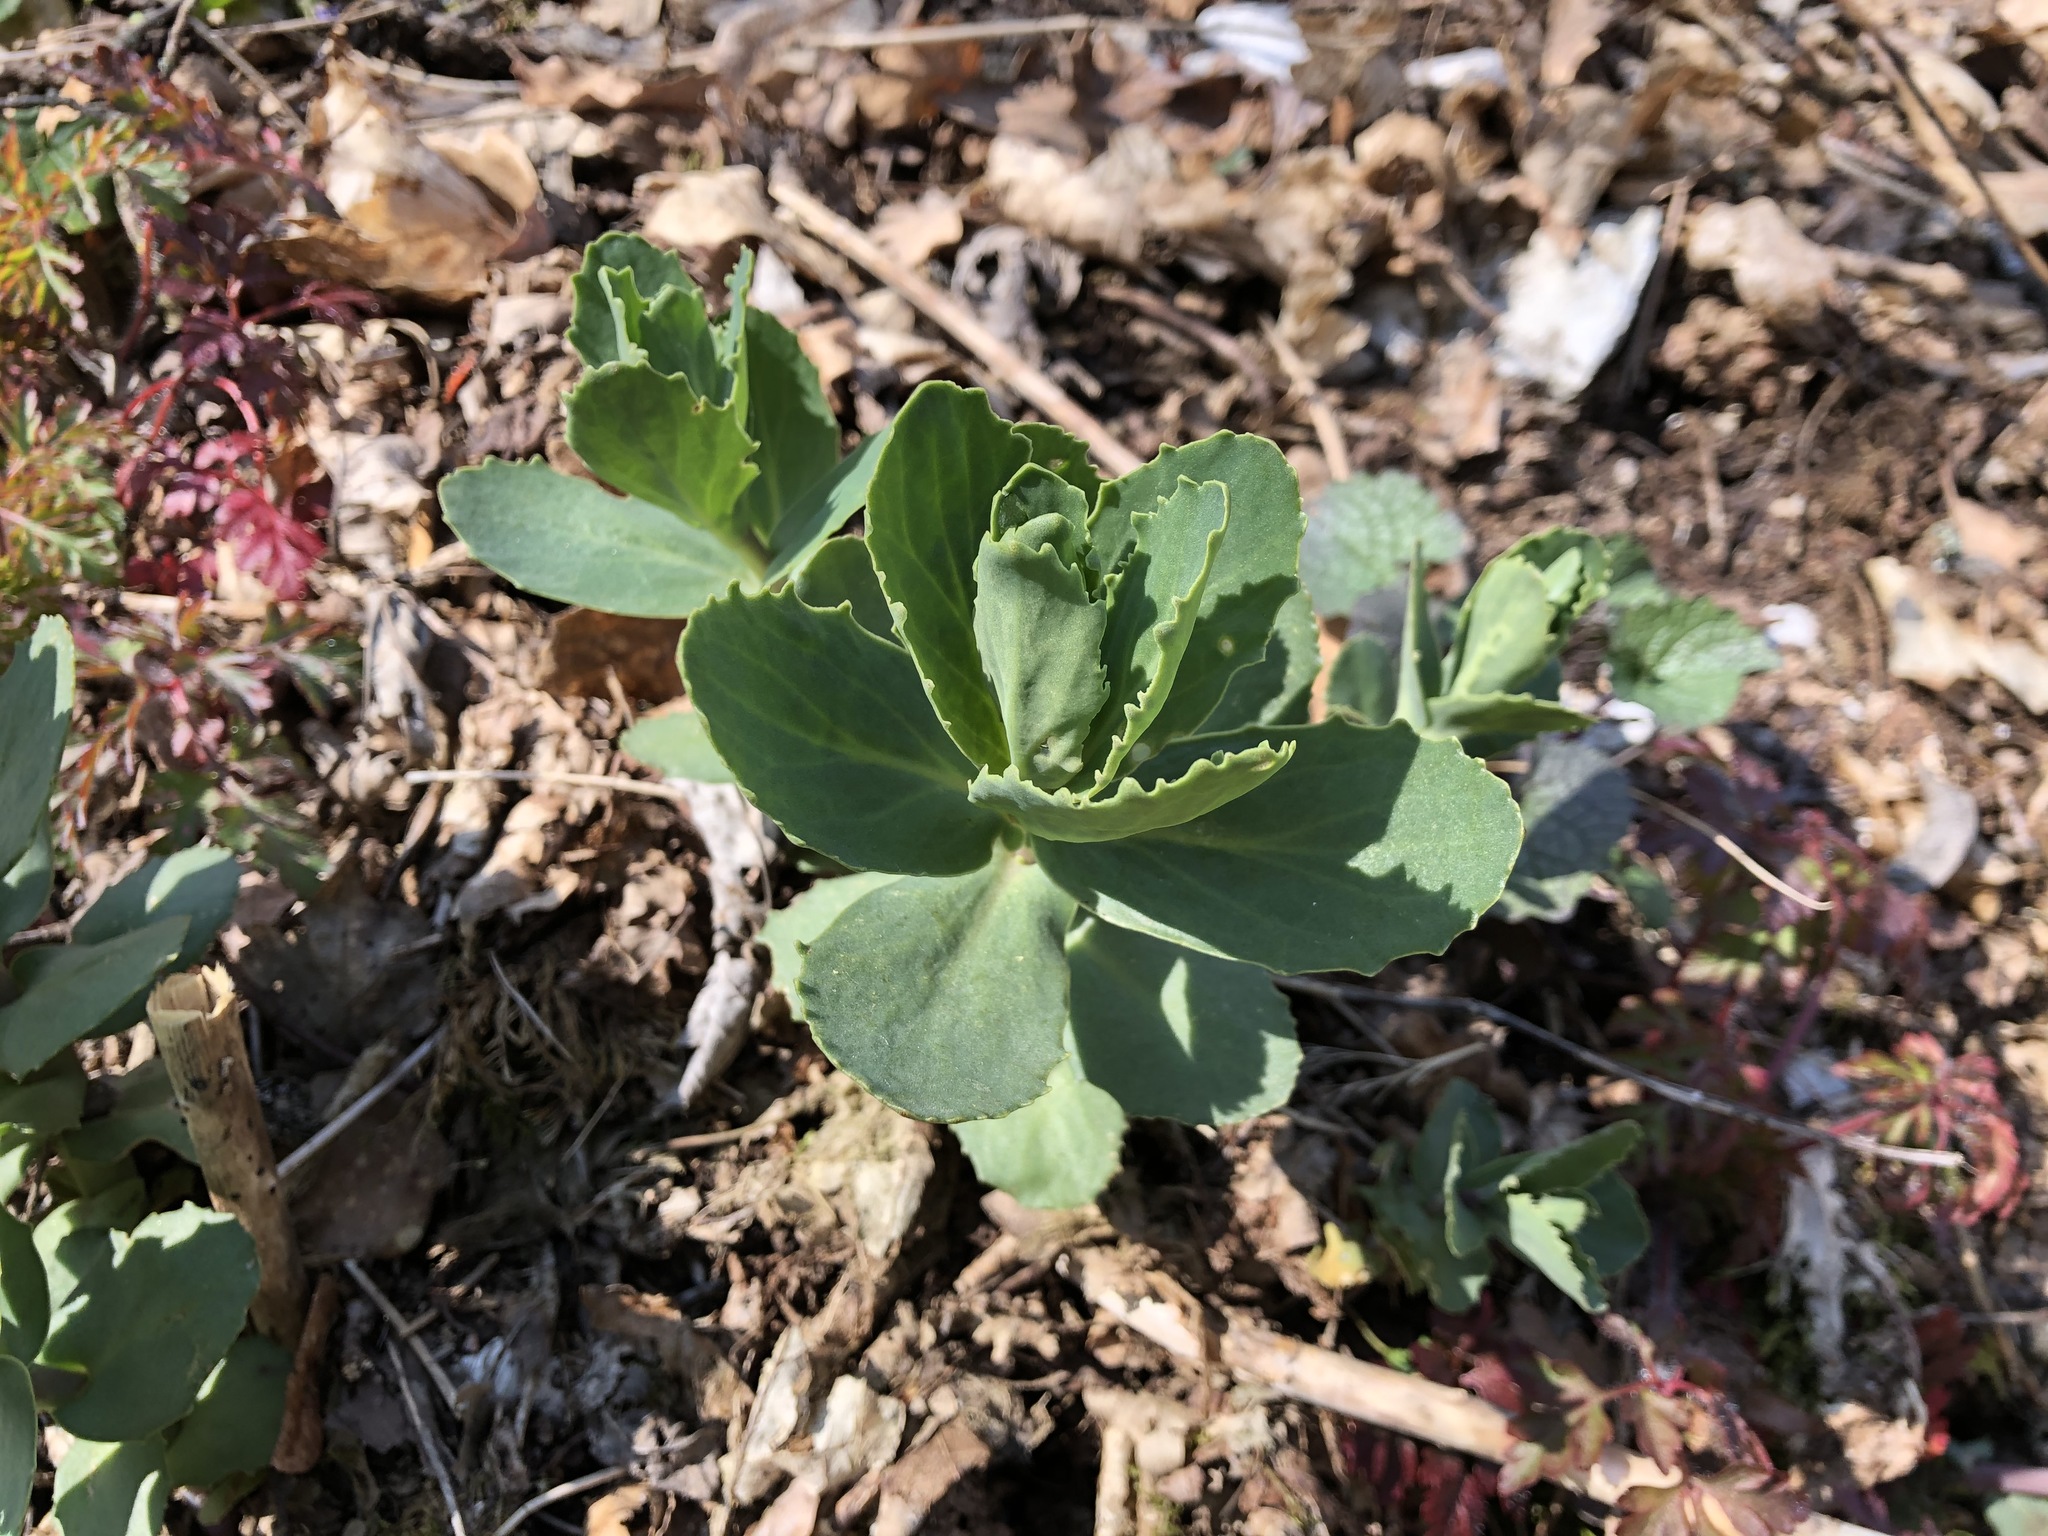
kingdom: Plantae
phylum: Tracheophyta
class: Magnoliopsida
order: Saxifragales
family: Crassulaceae
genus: Hylotelephium
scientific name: Hylotelephium telephium
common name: Live-forever
